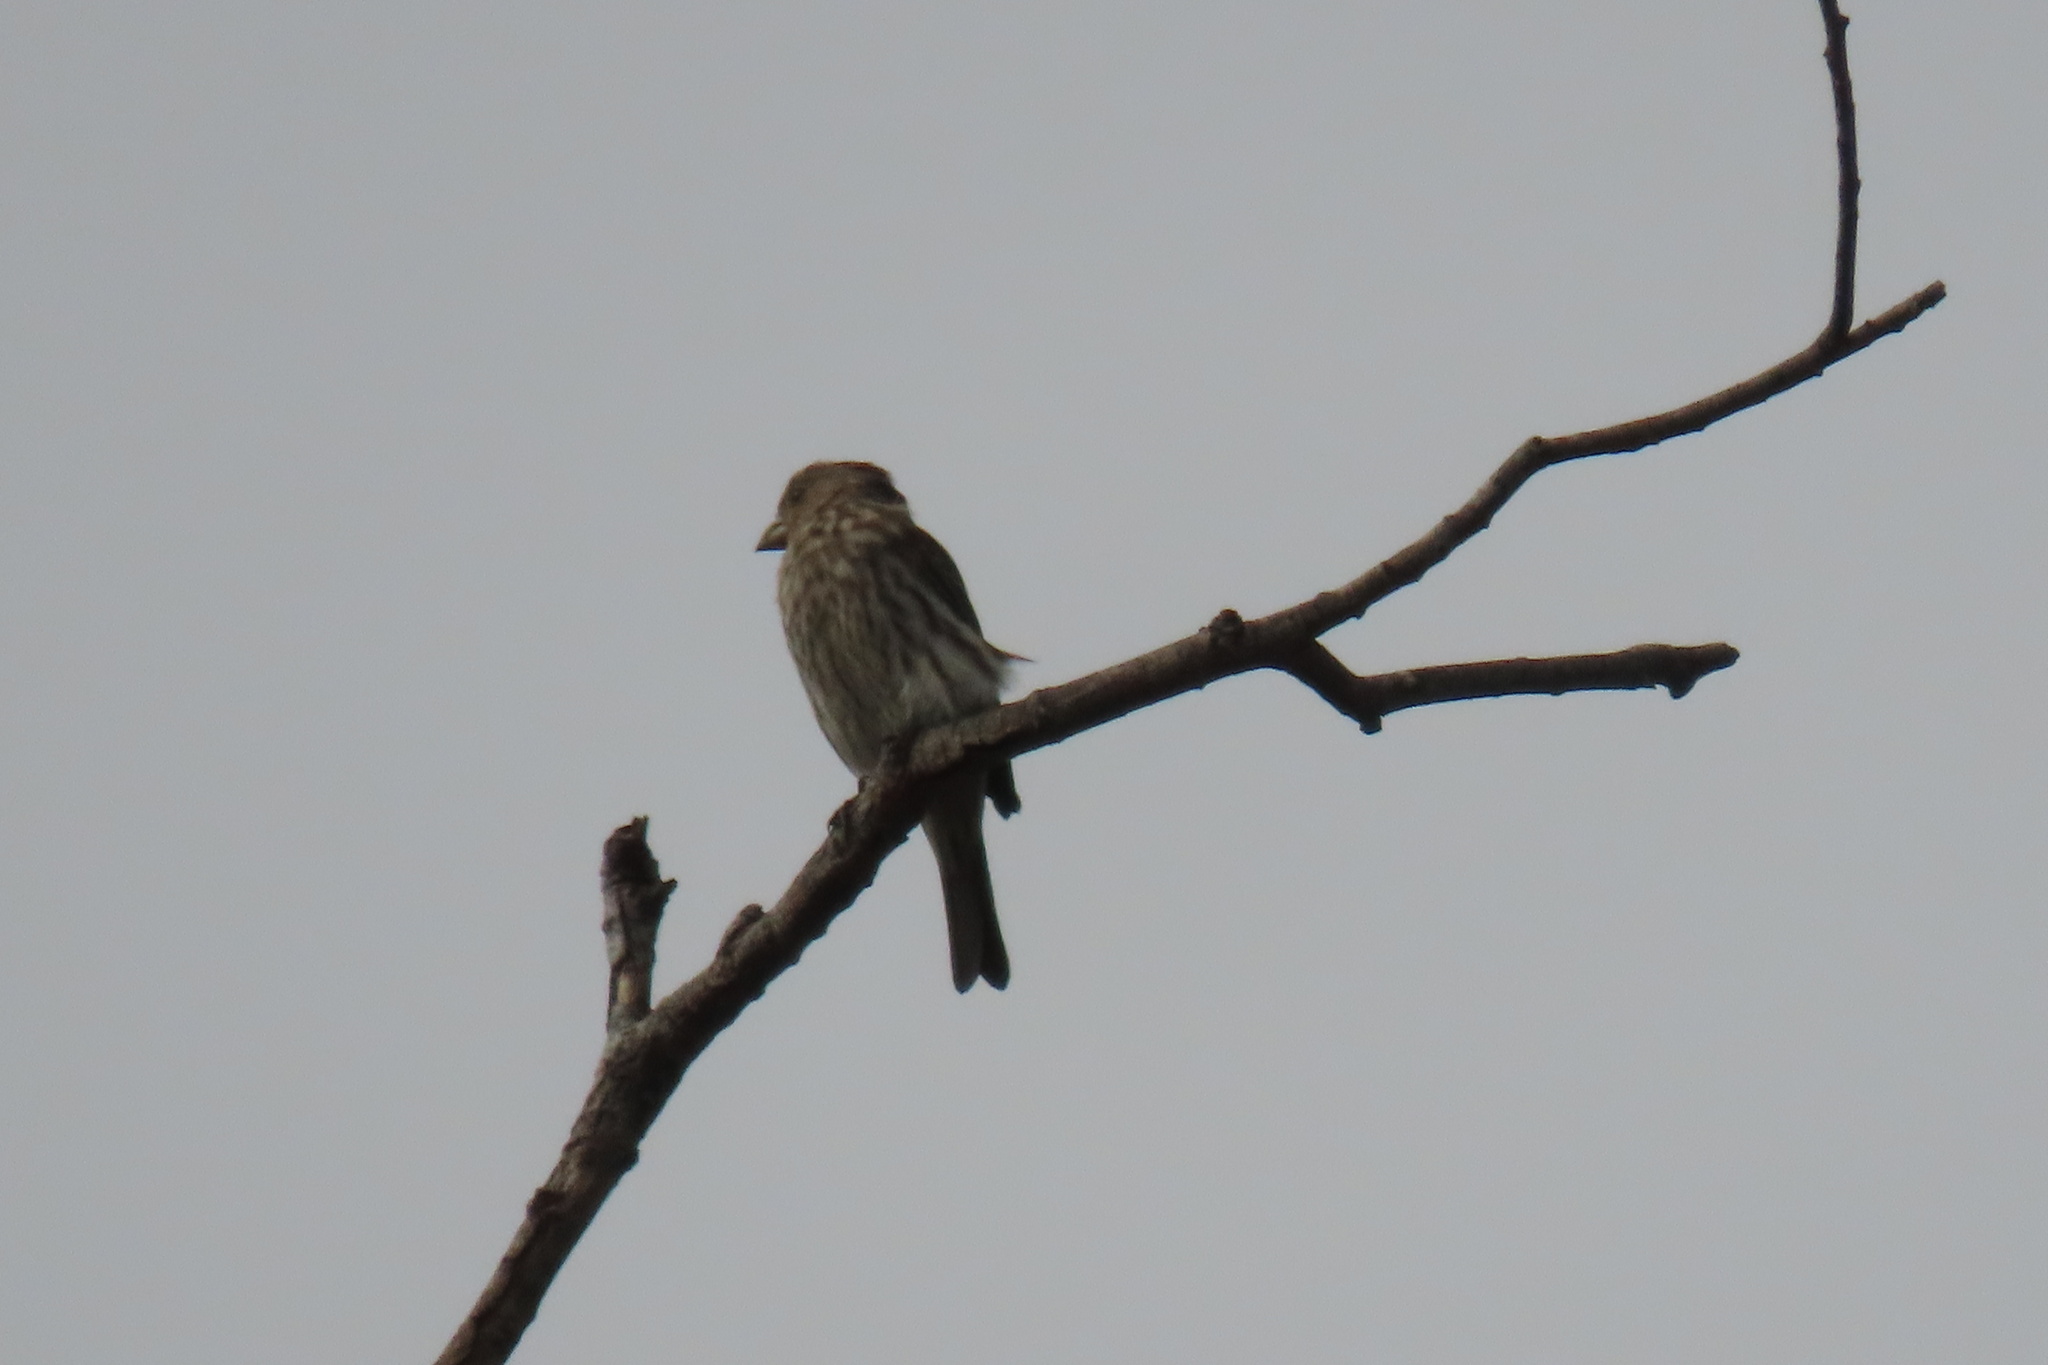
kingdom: Animalia
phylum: Chordata
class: Aves
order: Passeriformes
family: Fringillidae
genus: Haemorhous
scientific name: Haemorhous mexicanus
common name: House finch
